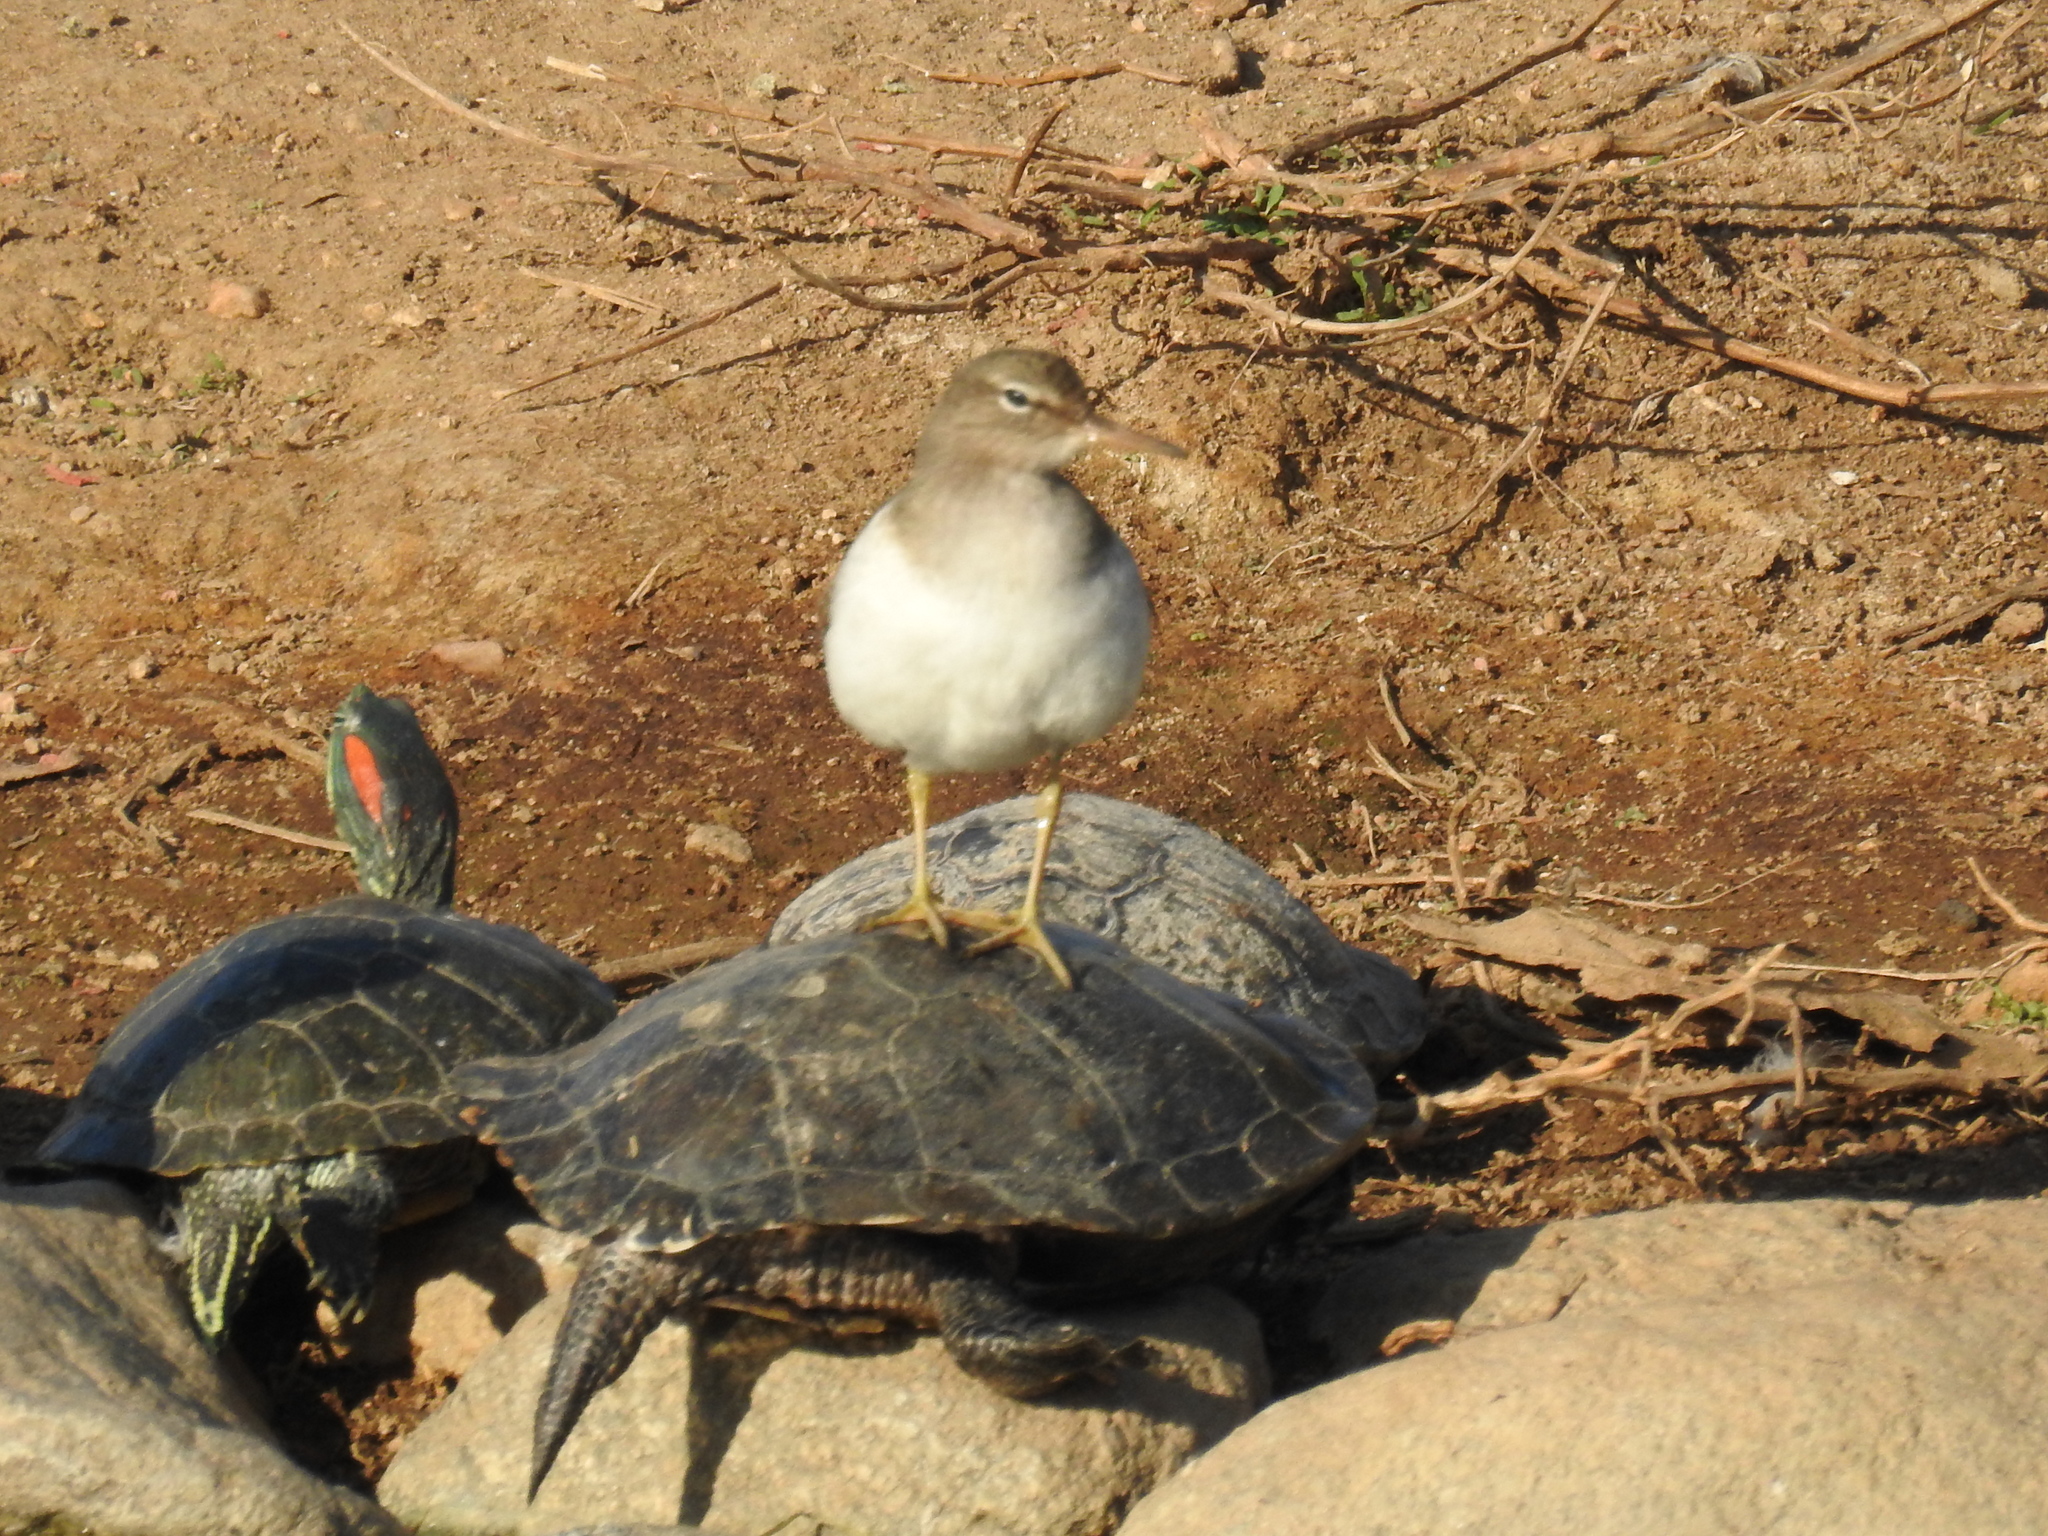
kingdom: Animalia
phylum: Chordata
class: Aves
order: Charadriiformes
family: Scolopacidae
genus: Actitis
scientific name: Actitis macularius
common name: Spotted sandpiper
